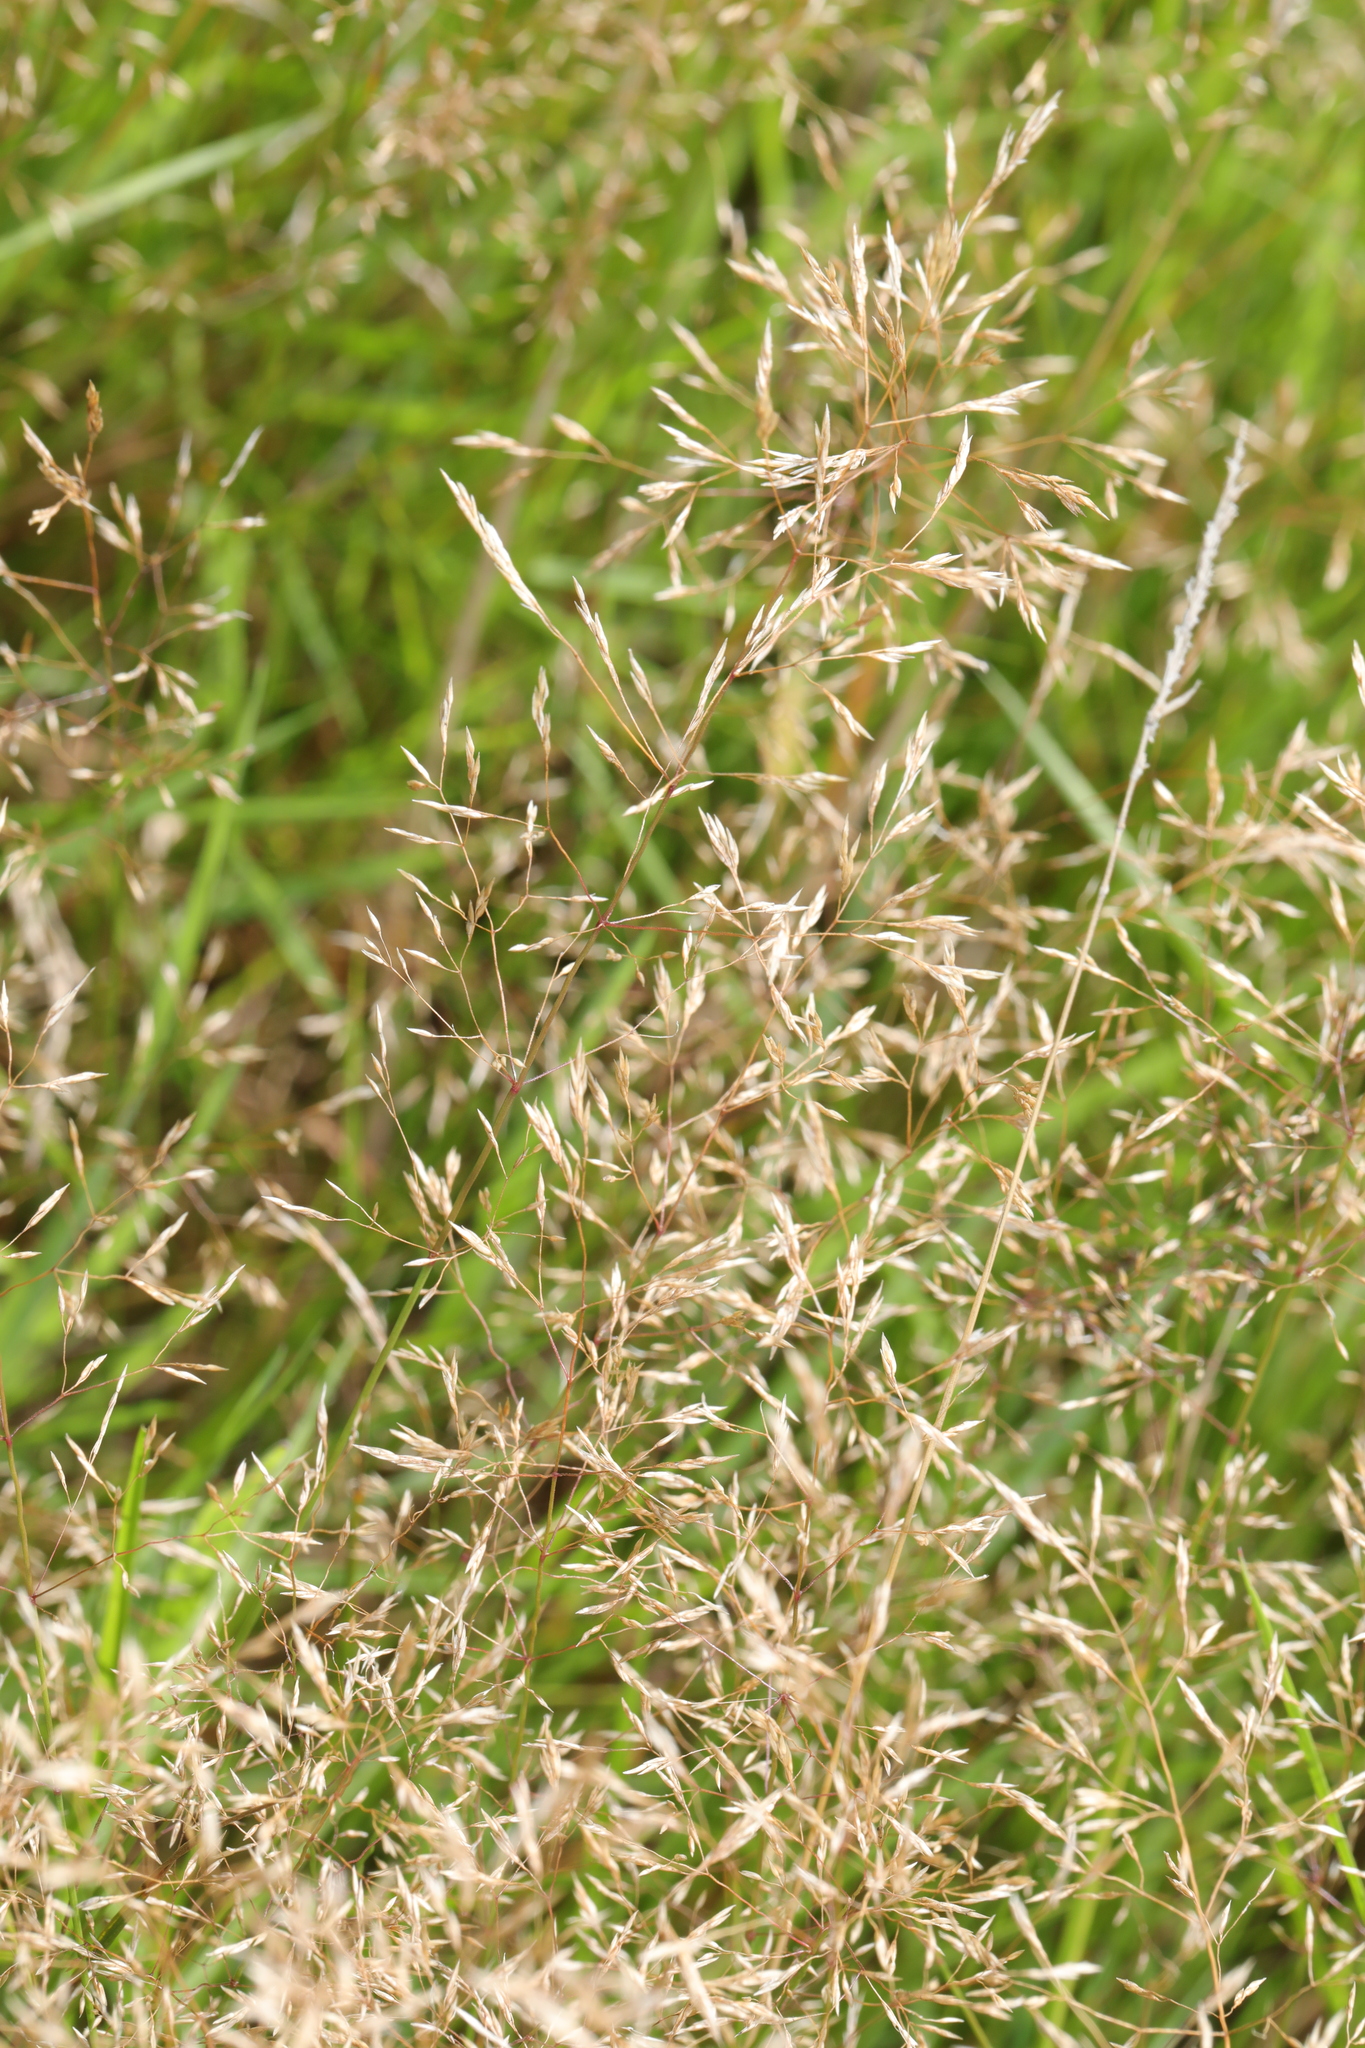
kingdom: Plantae
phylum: Tracheophyta
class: Liliopsida
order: Poales
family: Poaceae
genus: Agrostis
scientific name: Agrostis capillaris
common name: Colonial bentgrass
